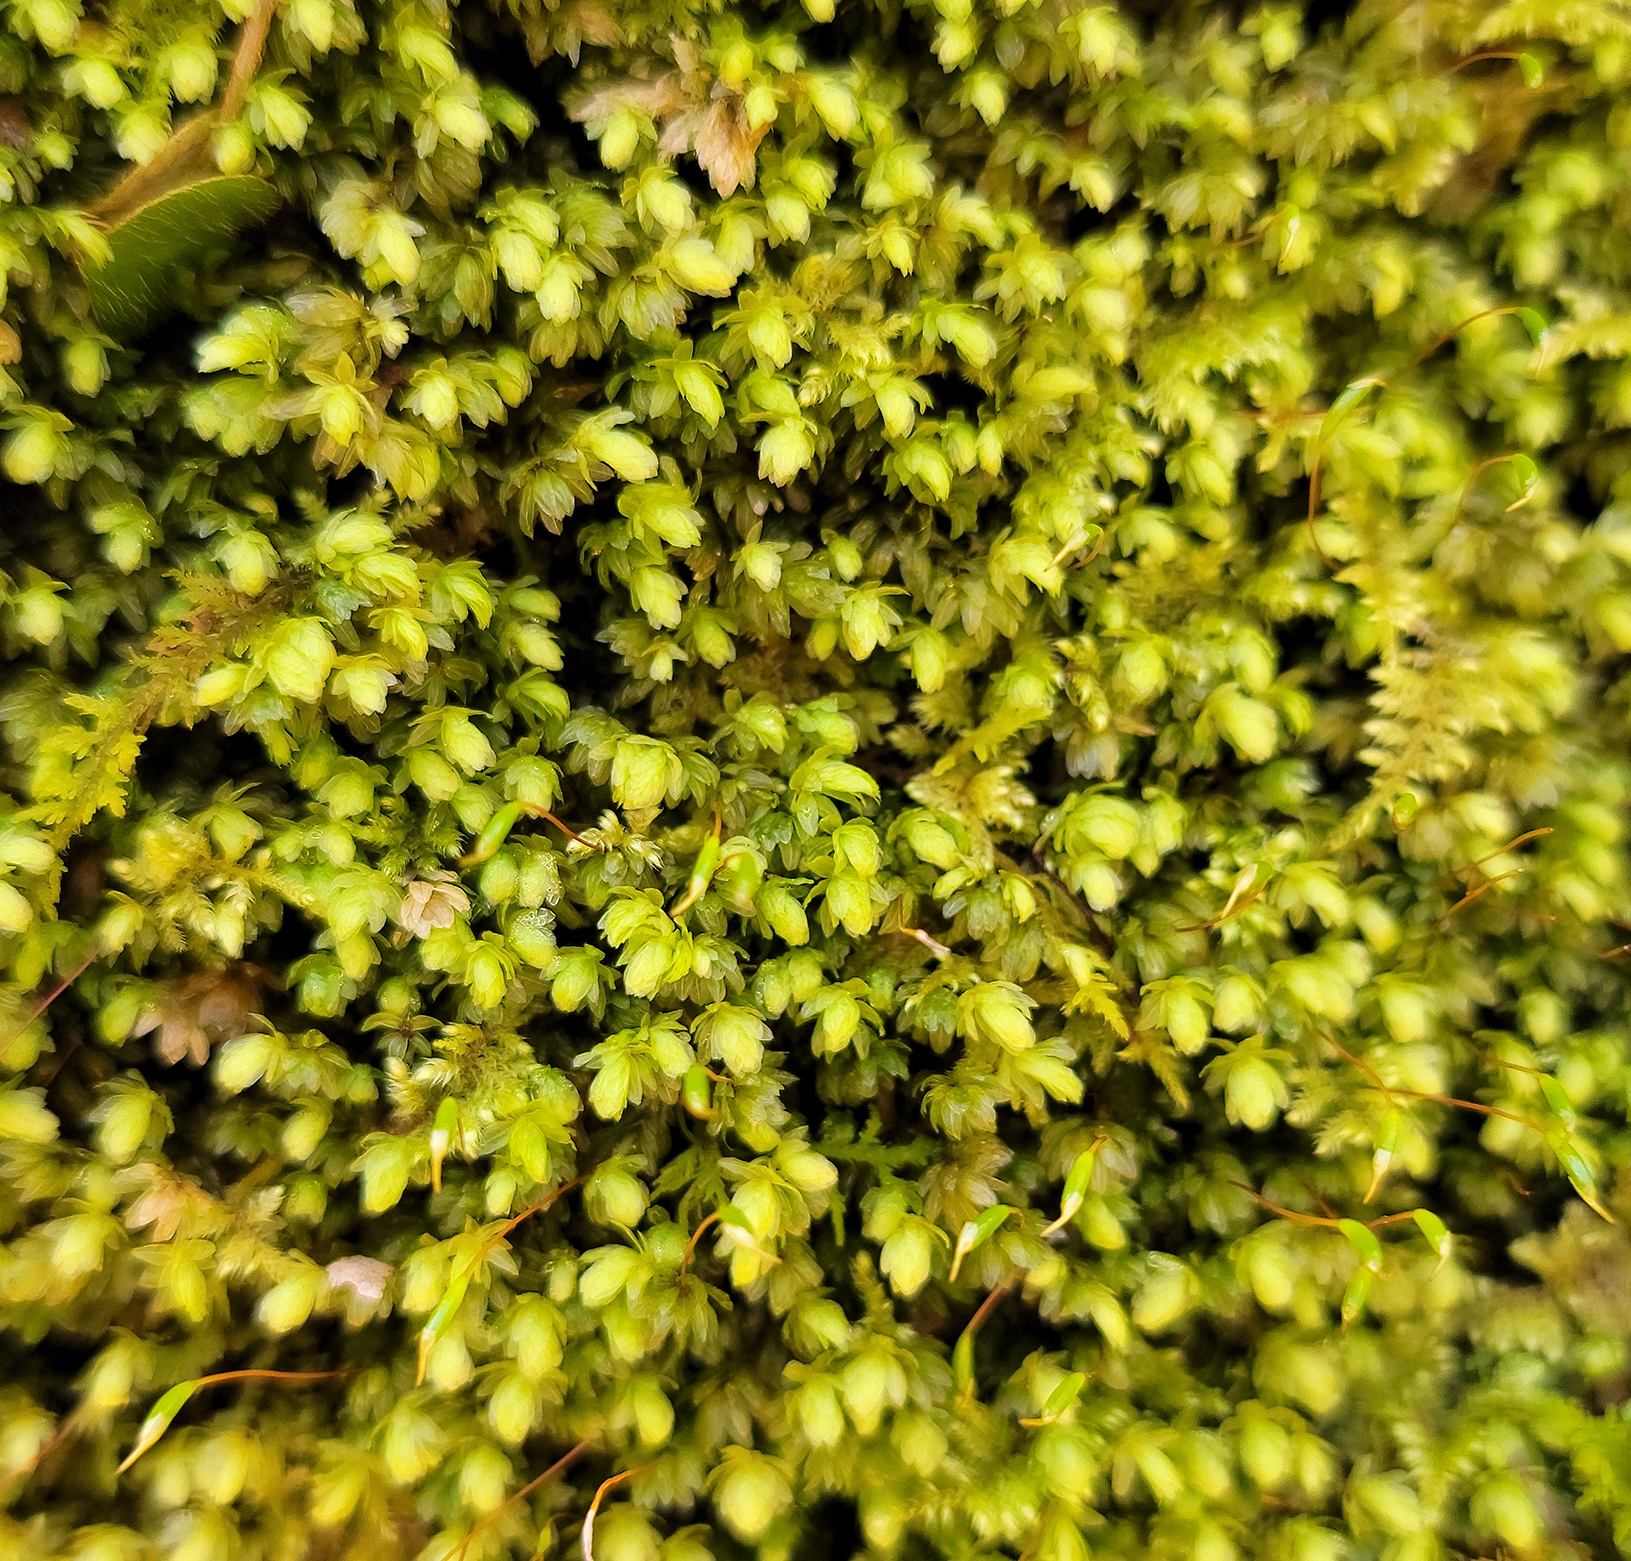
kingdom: Plantae
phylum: Bryophyta
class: Bryopsida
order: Aulacomniales
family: Aulacomniaceae
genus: Aulacomnium
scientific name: Aulacomnium heterostichum
